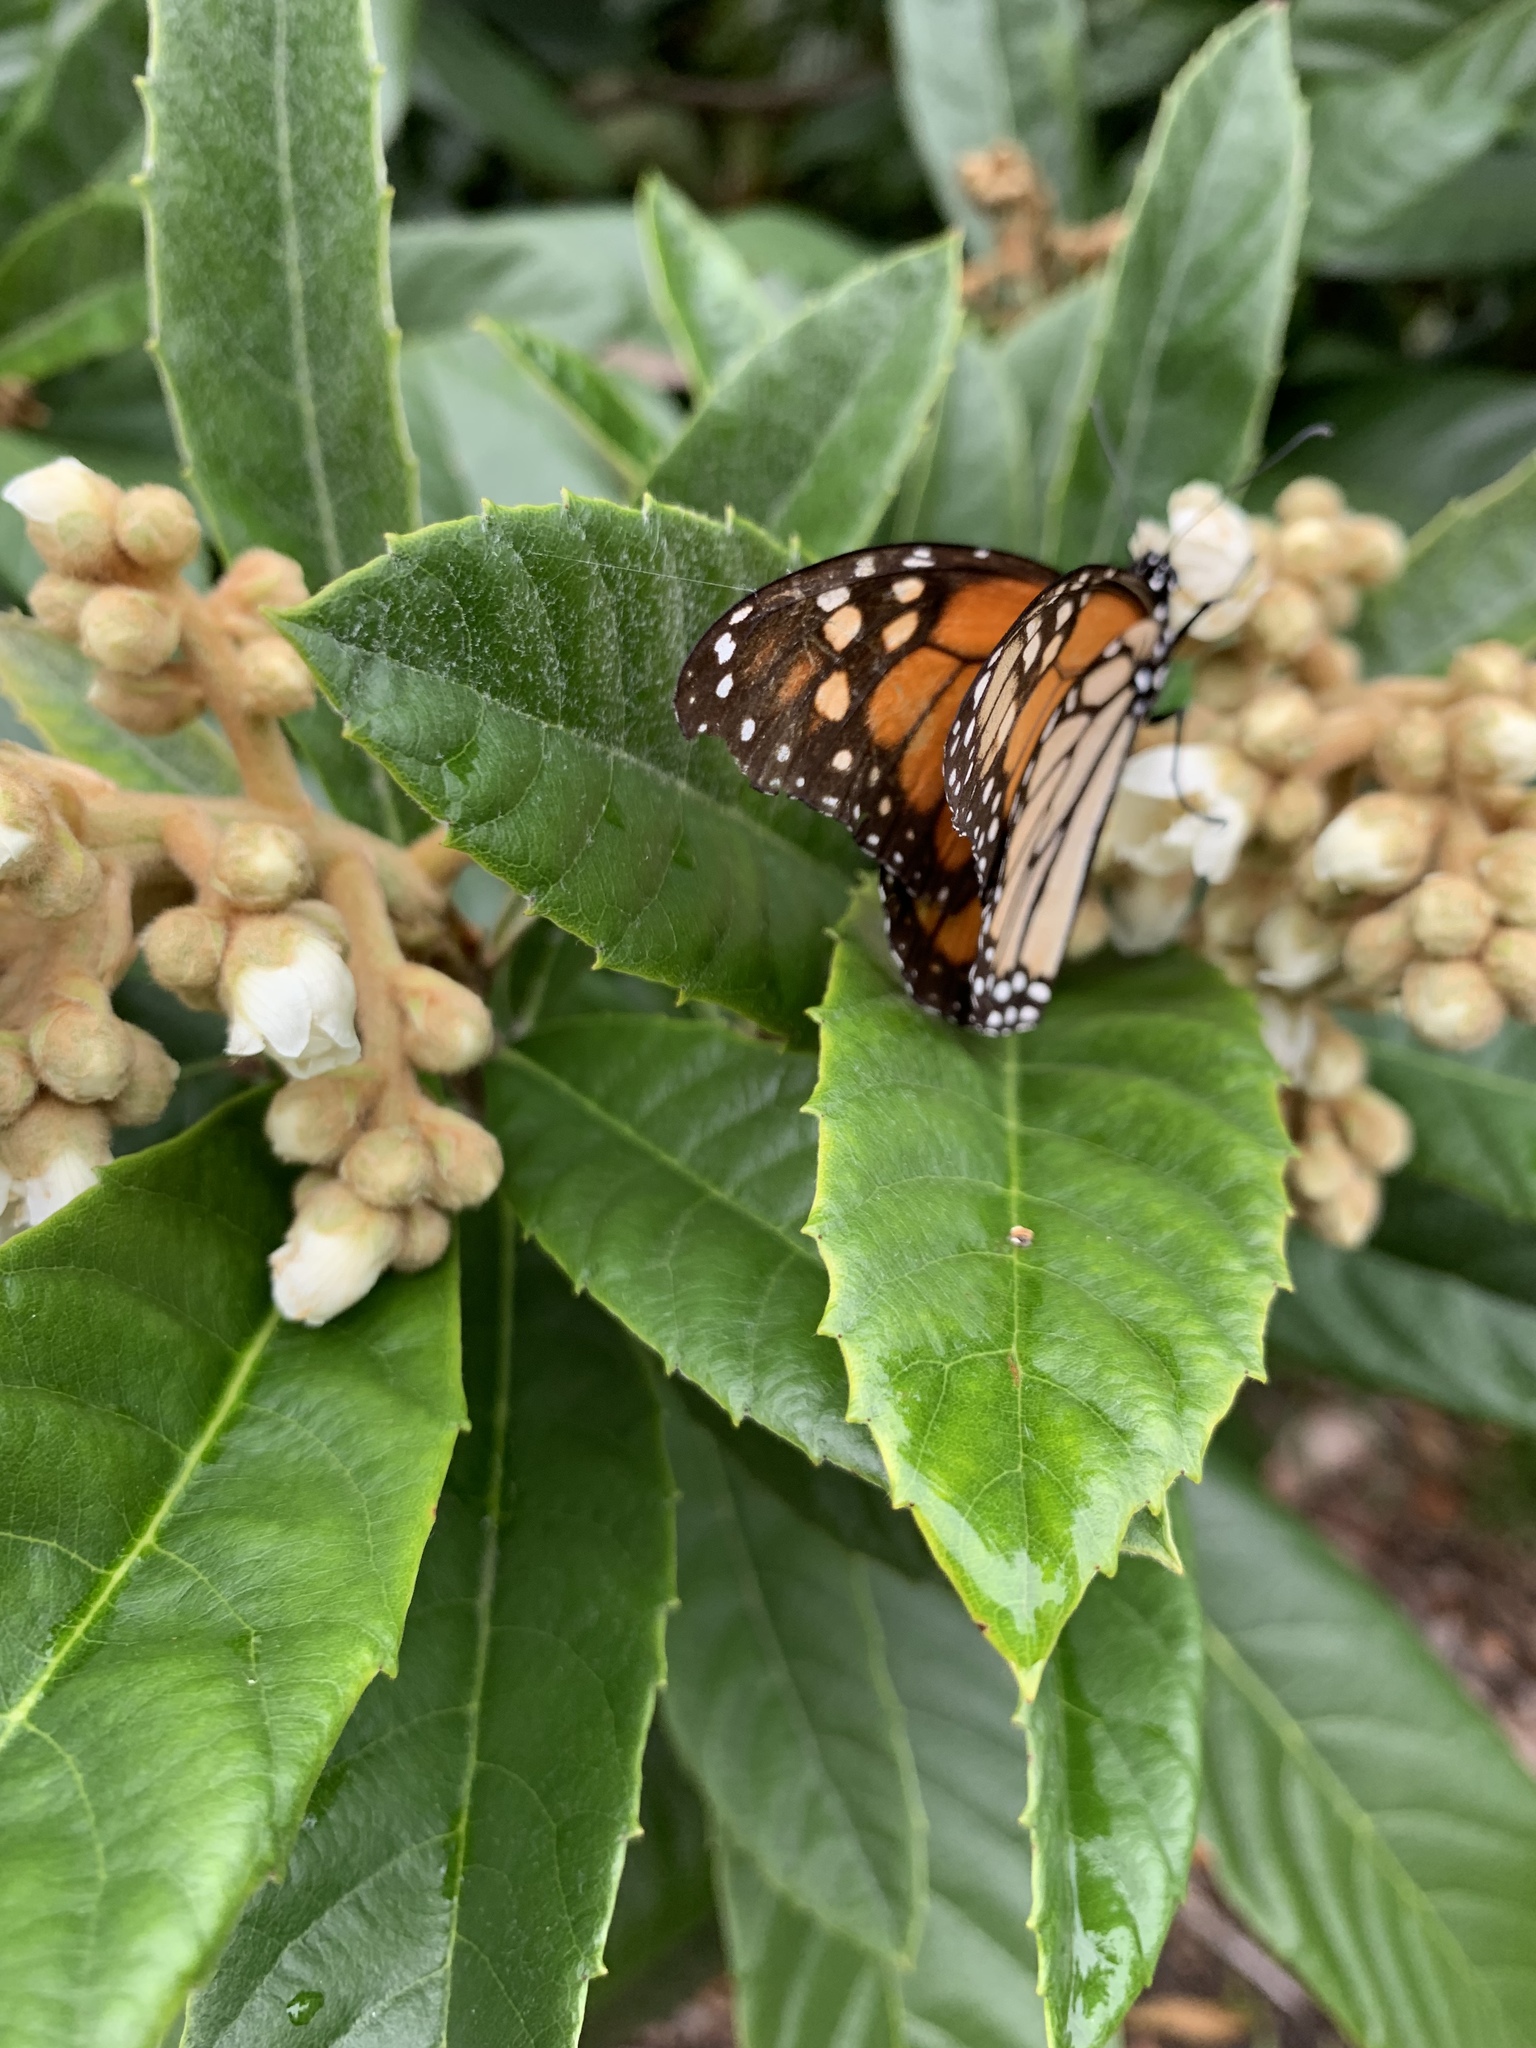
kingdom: Animalia
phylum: Arthropoda
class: Insecta
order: Lepidoptera
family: Nymphalidae
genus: Danaus
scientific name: Danaus plexippus
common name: Monarch
